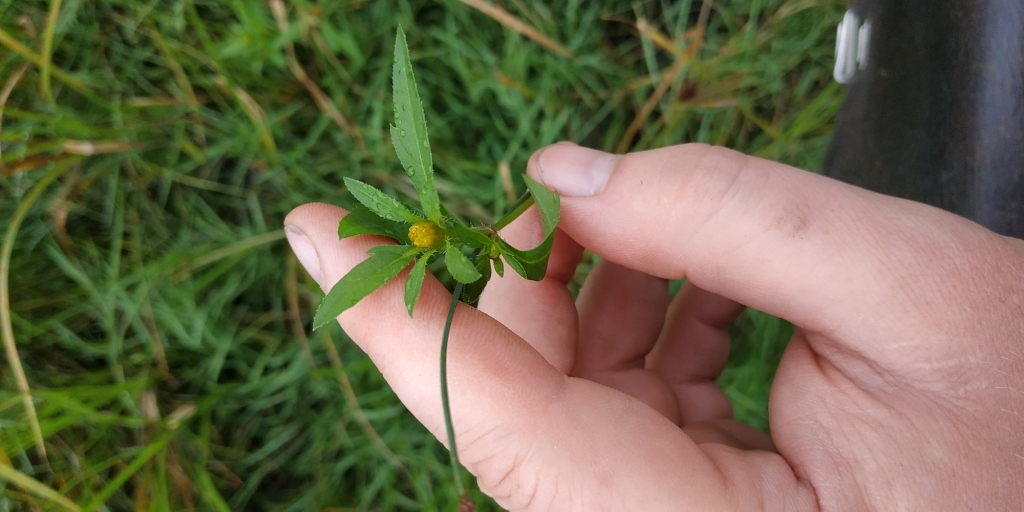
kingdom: Plantae
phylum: Tracheophyta
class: Magnoliopsida
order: Asterales
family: Asteraceae
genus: Bidens
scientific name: Bidens tripartita
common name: Trifid bur-marigold
